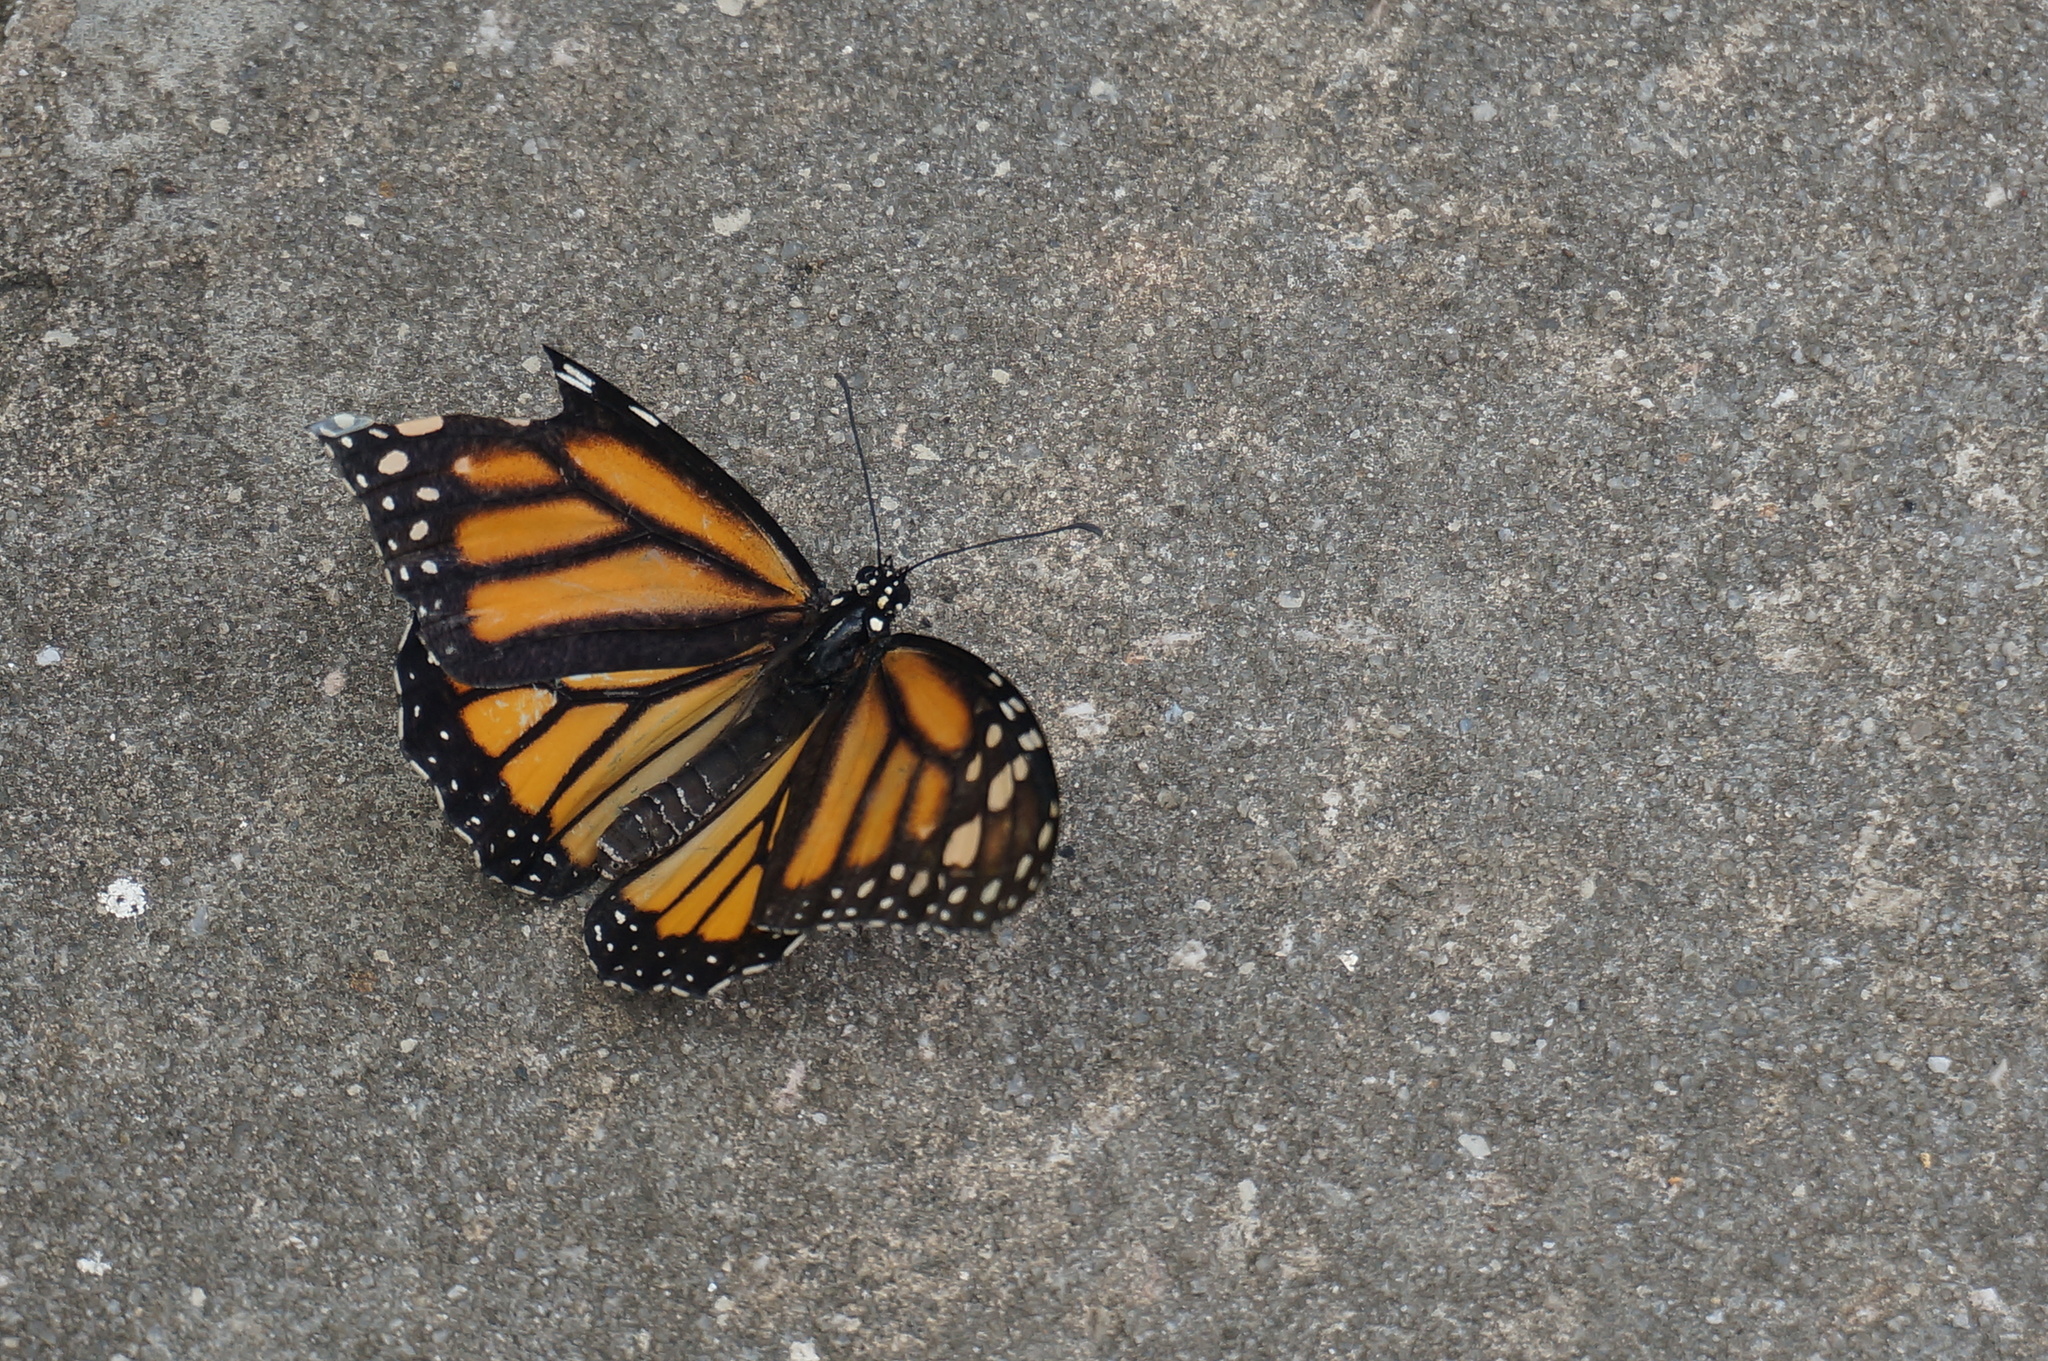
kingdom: Animalia
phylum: Arthropoda
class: Insecta
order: Lepidoptera
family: Nymphalidae
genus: Danaus
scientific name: Danaus plexippus
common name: Monarch
